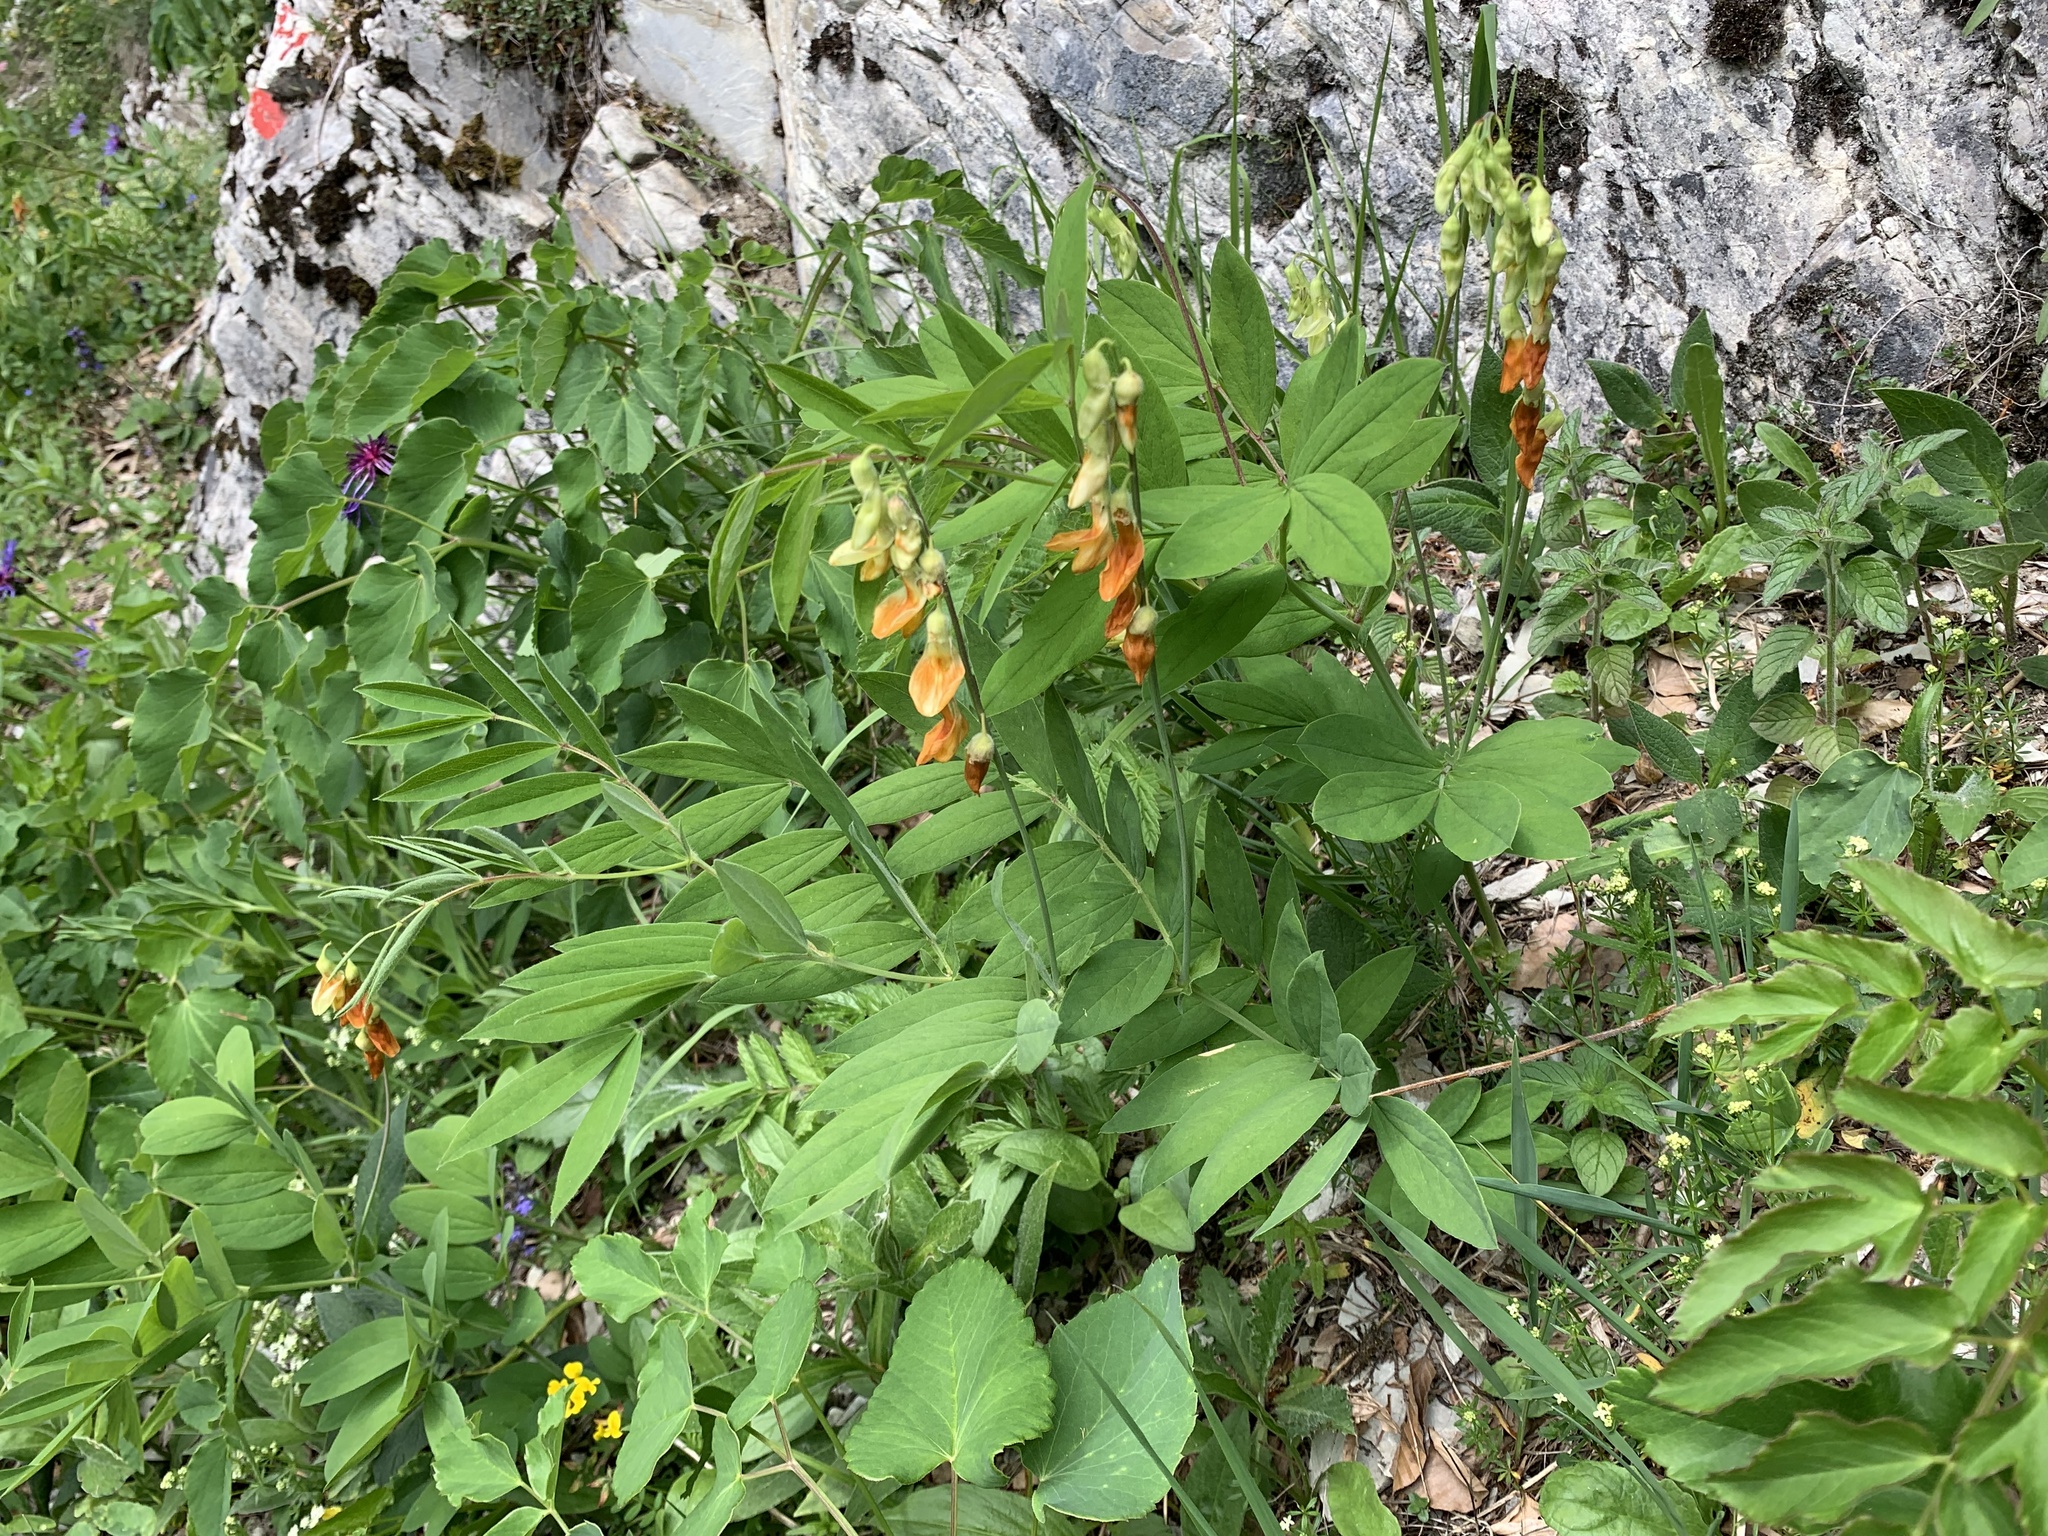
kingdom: Plantae
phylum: Tracheophyta
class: Magnoliopsida
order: Fabales
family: Fabaceae
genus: Lathyrus
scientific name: Lathyrus laevigatus
